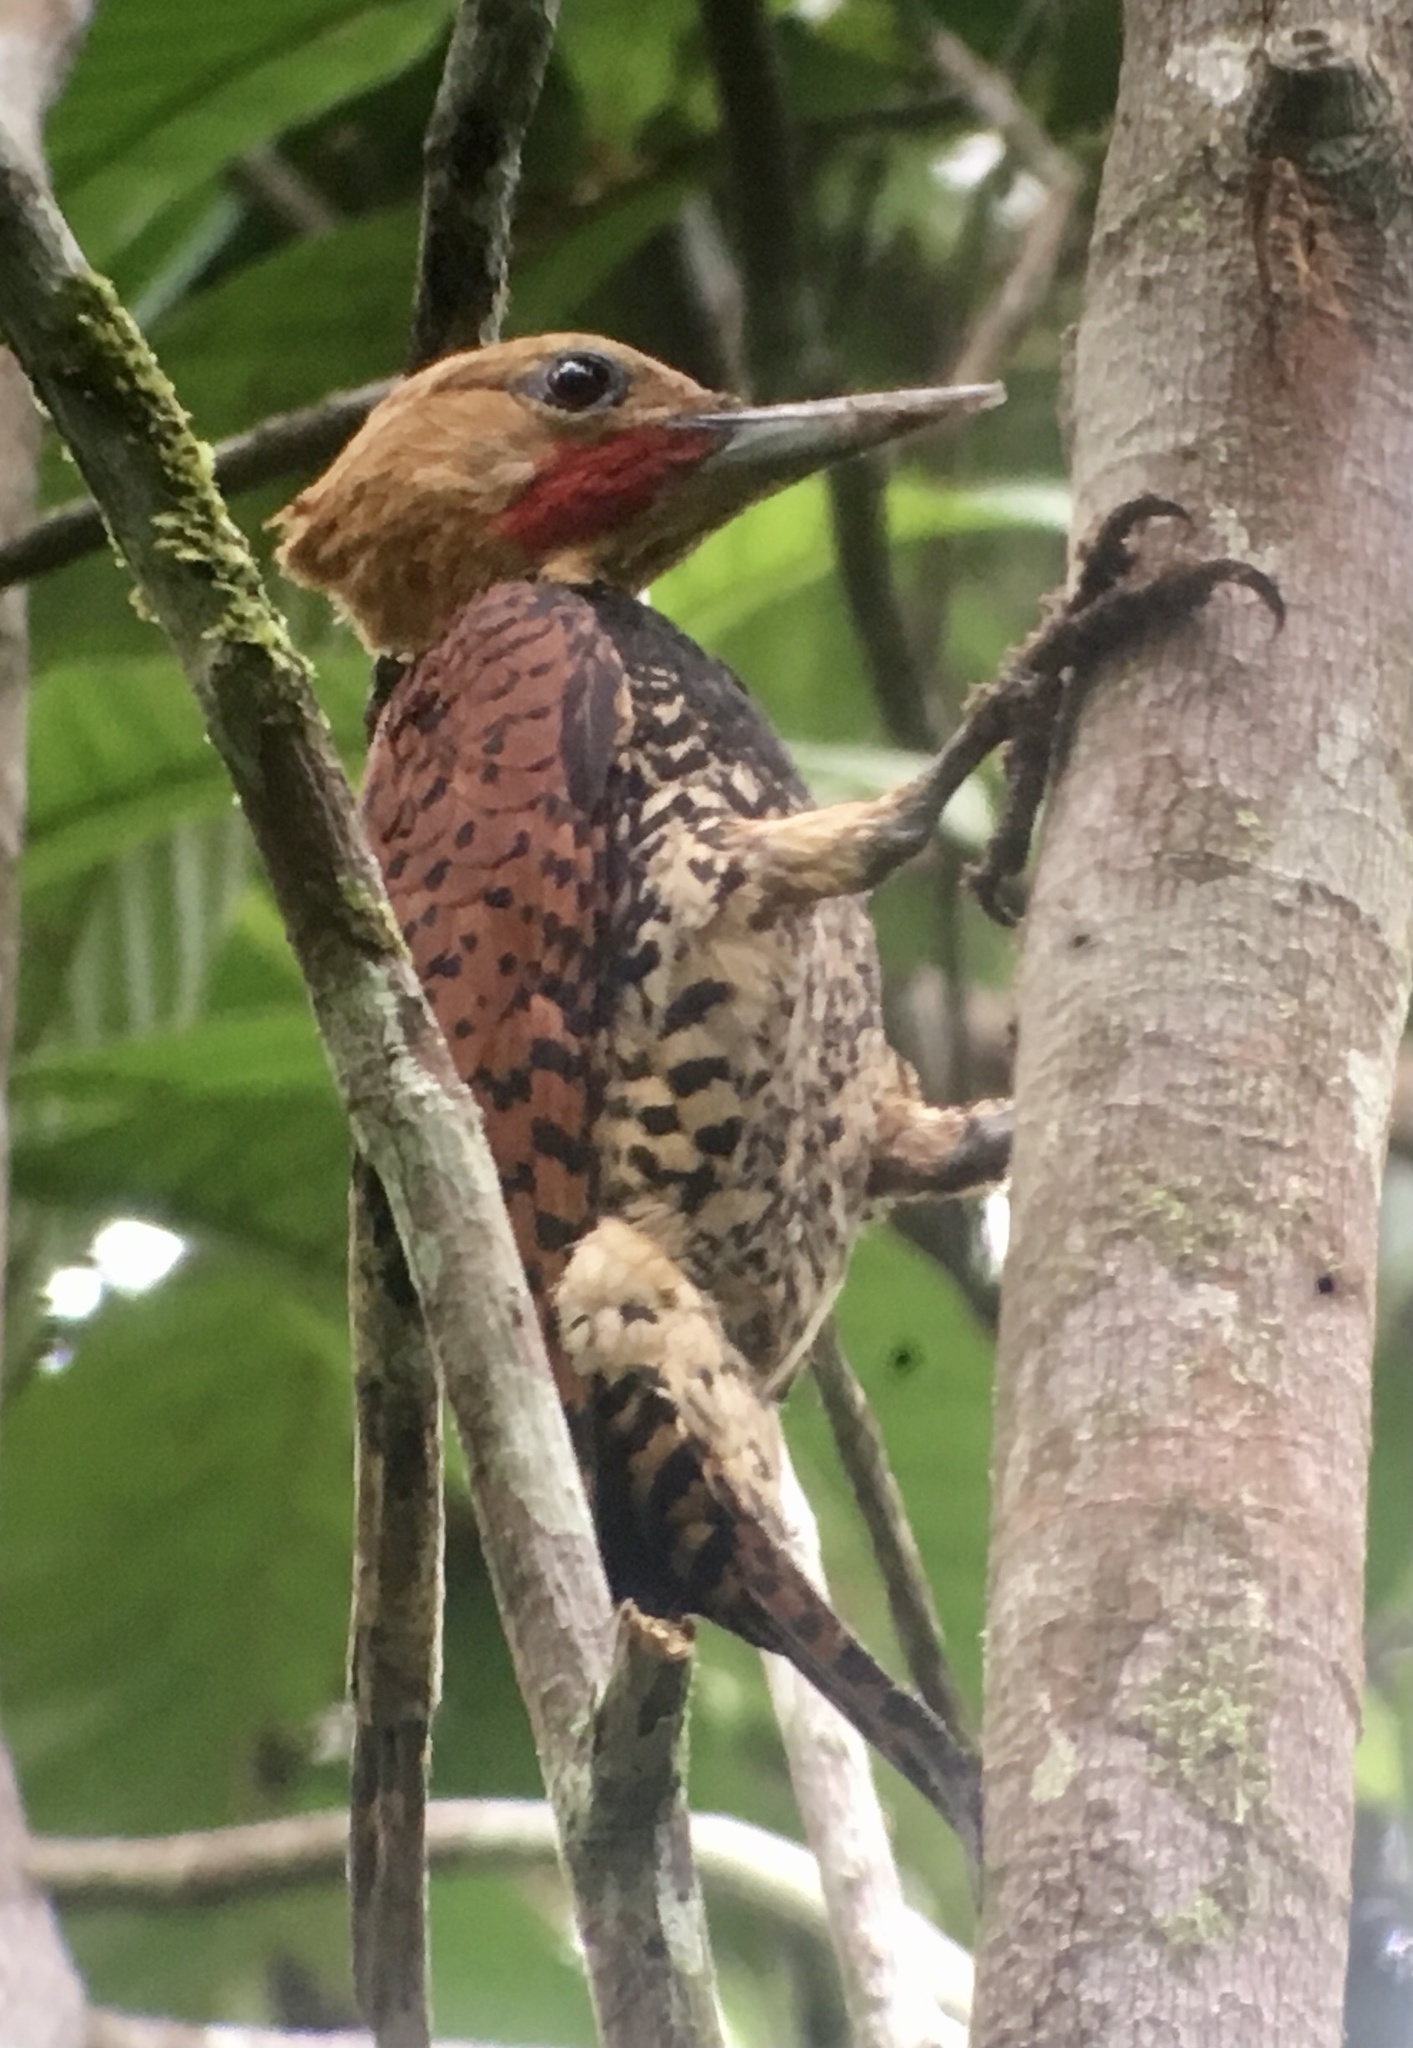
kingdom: Animalia
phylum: Chordata
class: Aves
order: Piciformes
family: Picidae
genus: Celeus
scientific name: Celeus torquatus
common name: Ringed woodpecker
